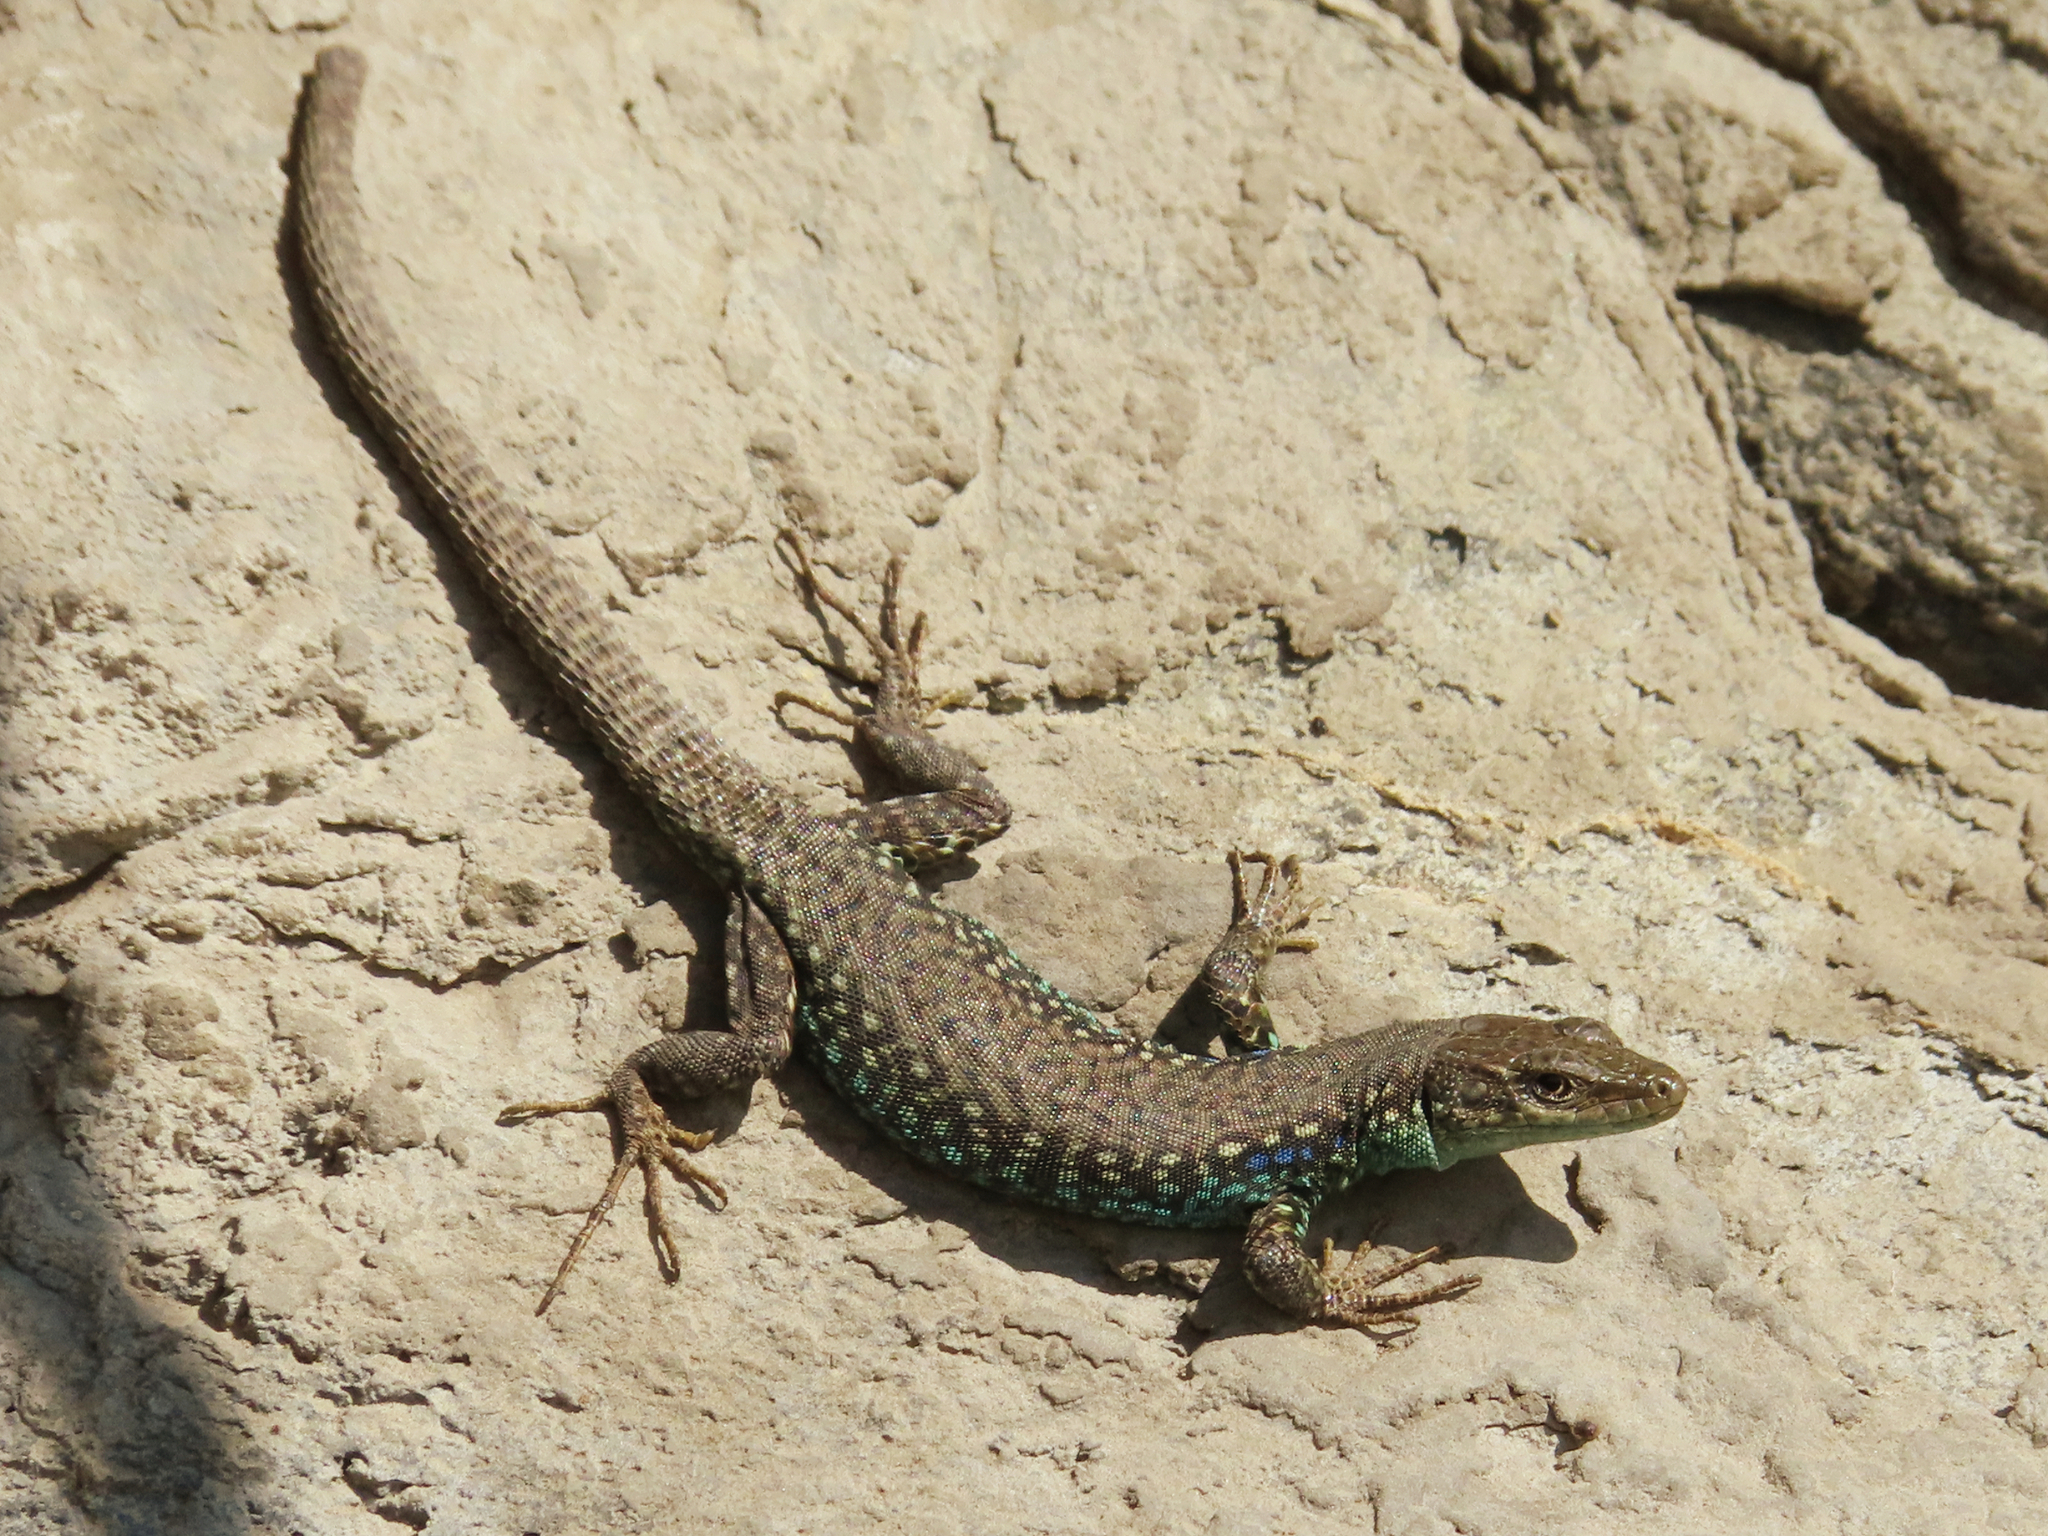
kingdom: Animalia
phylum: Chordata
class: Squamata
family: Lacertidae
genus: Darevskia
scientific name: Darevskia
